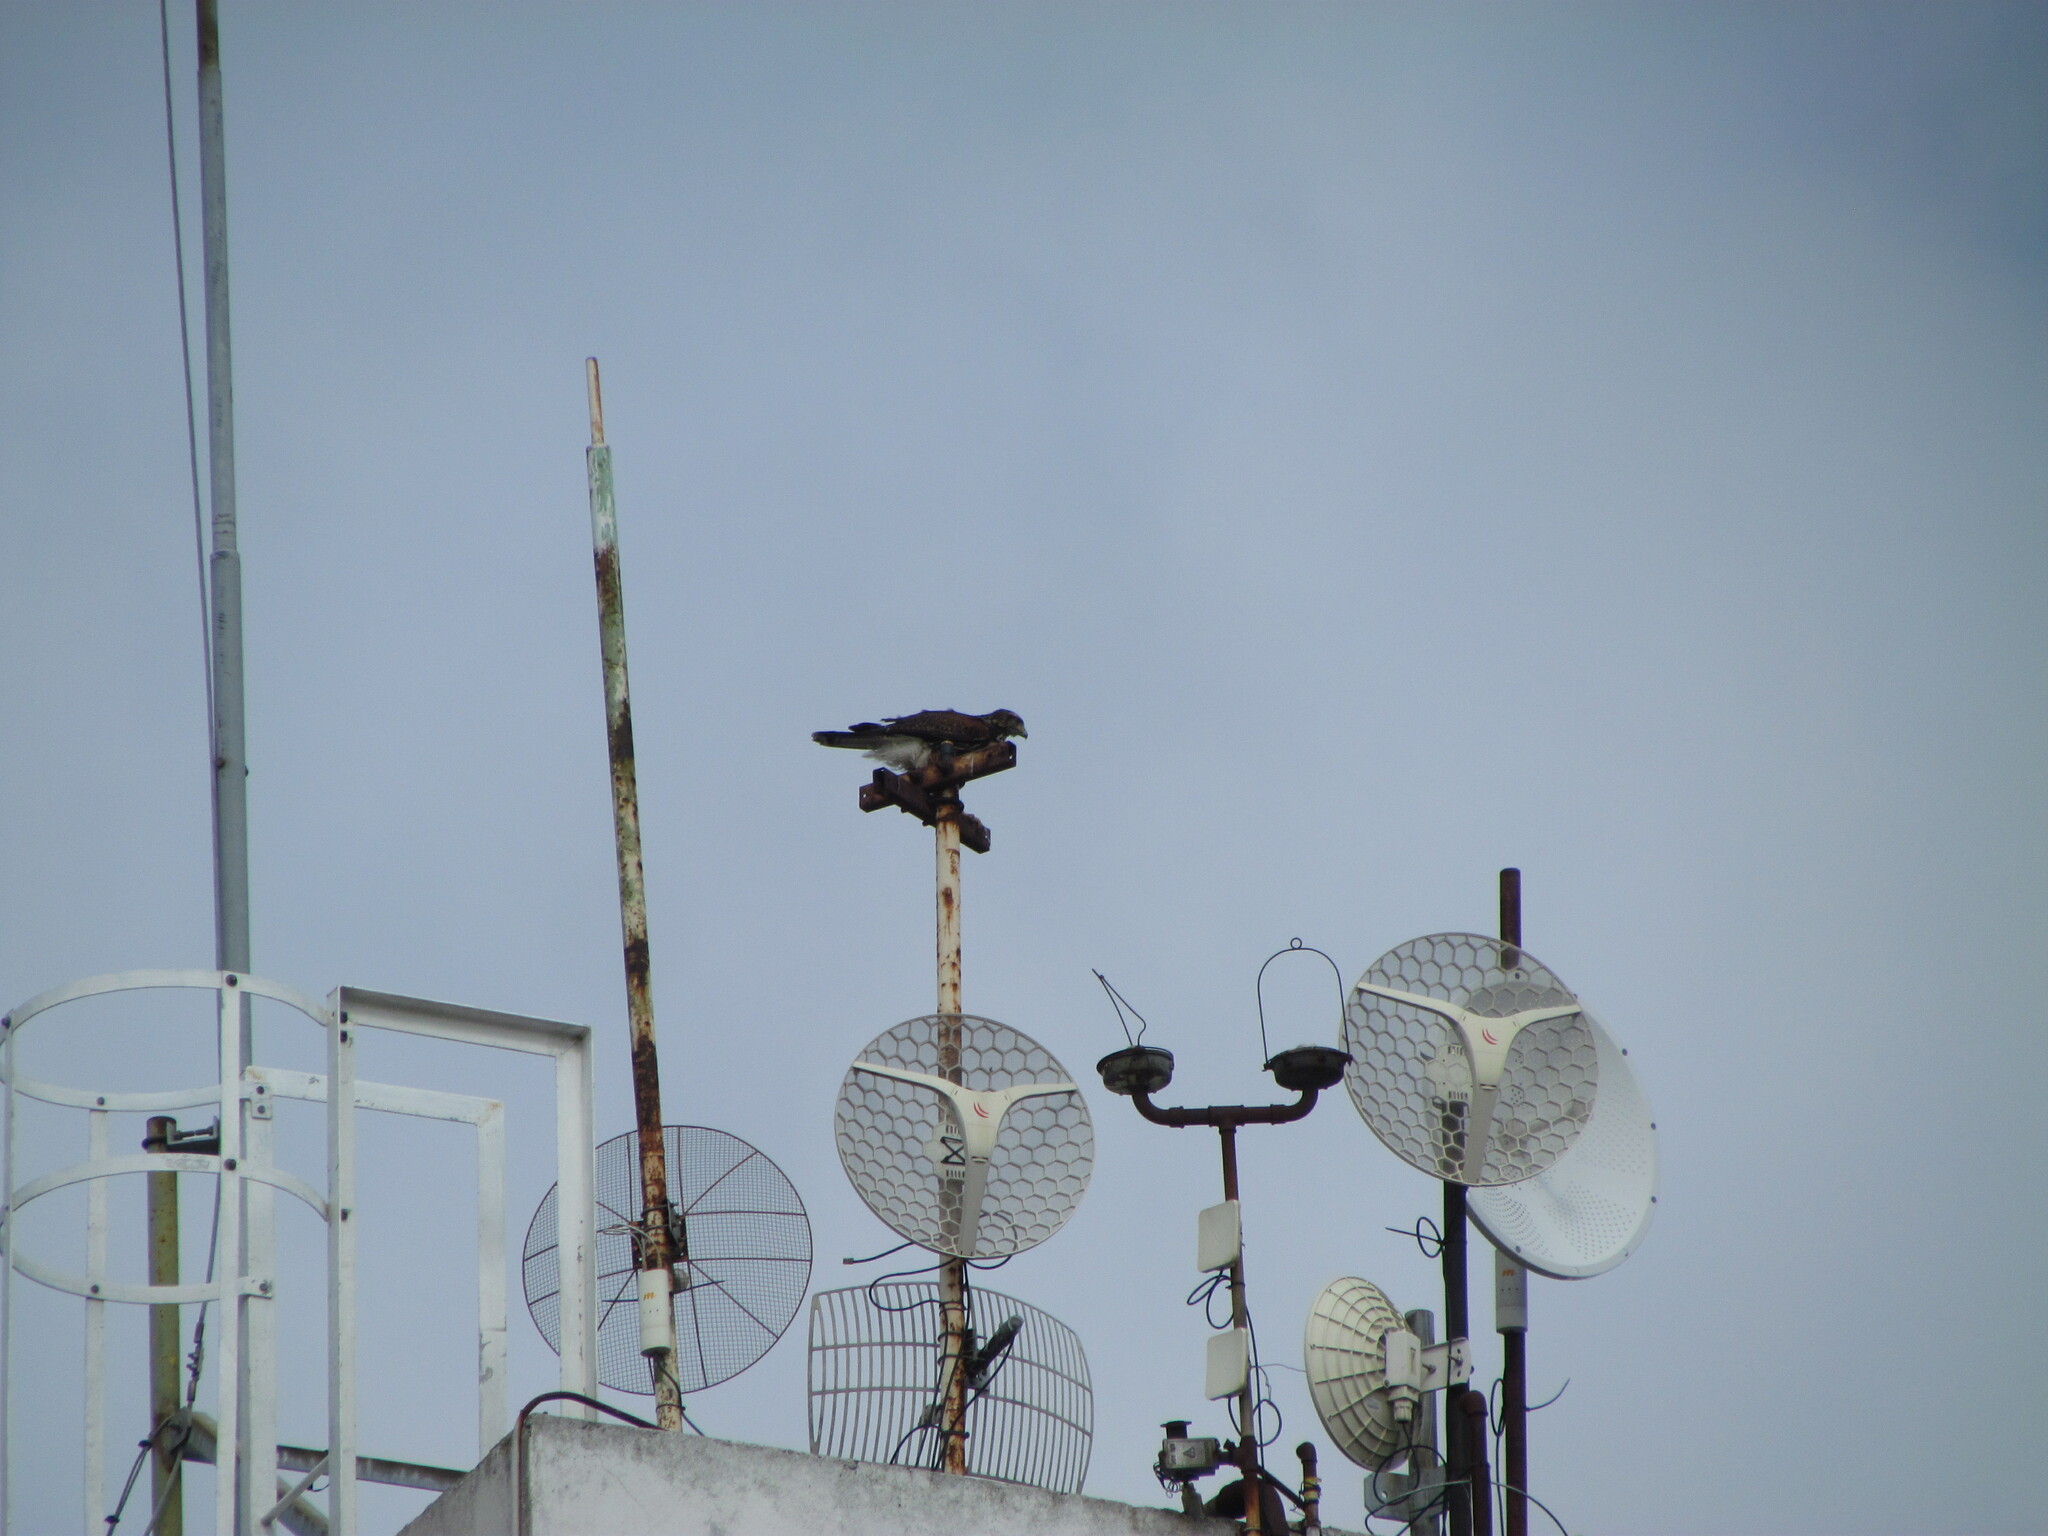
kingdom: Animalia
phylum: Chordata
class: Aves
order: Accipitriformes
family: Accipitridae
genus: Parabuteo
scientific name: Parabuteo unicinctus
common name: Harris's hawk
